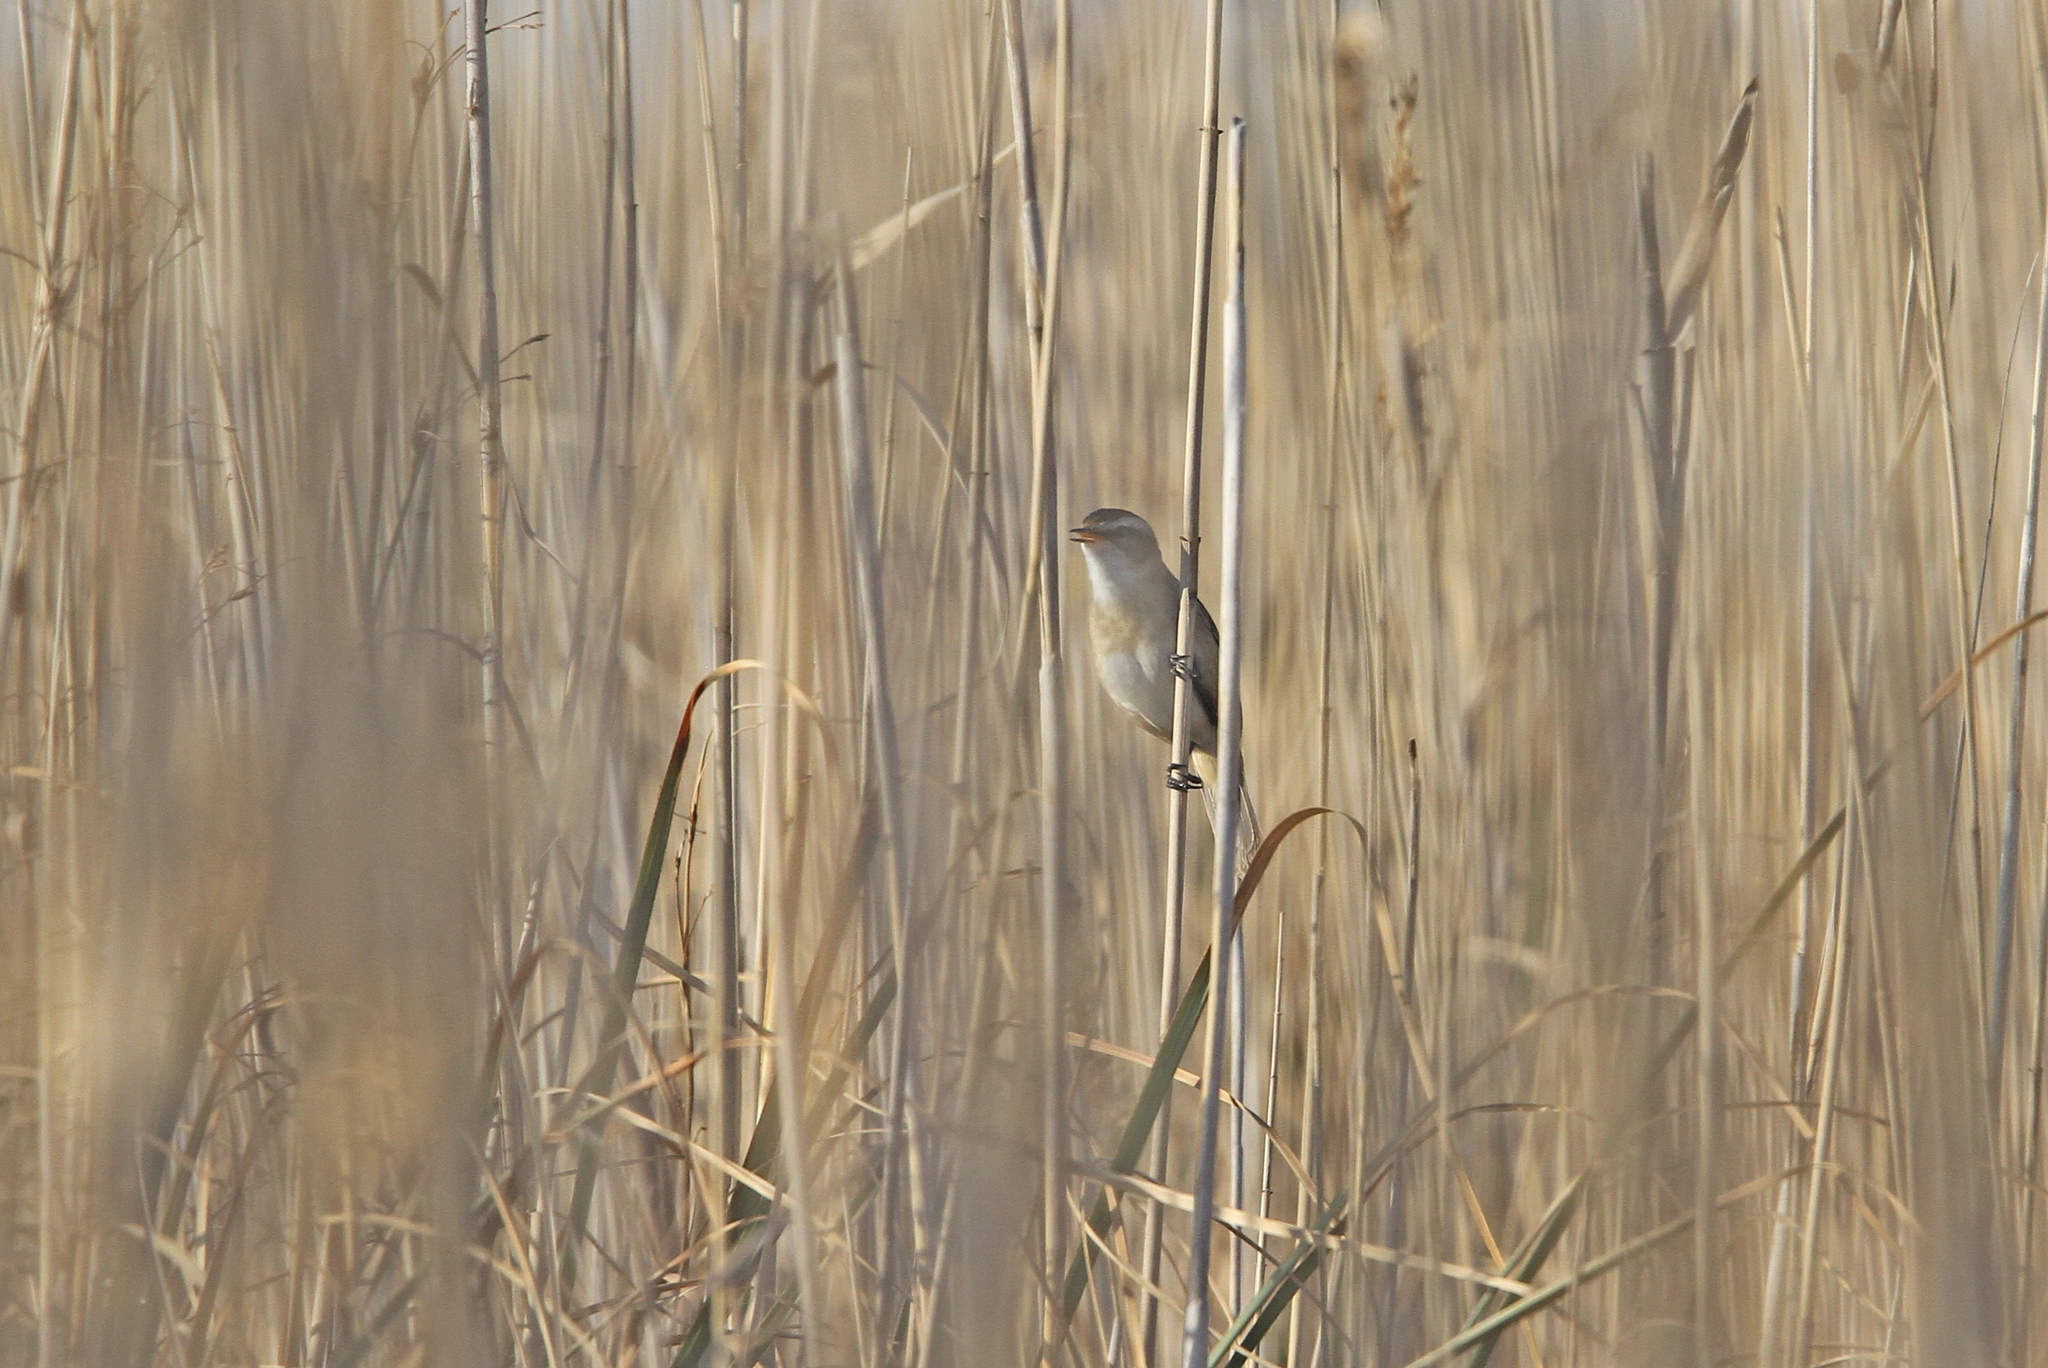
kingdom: Animalia
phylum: Chordata
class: Aves
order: Passeriformes
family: Acrocephalidae
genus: Acrocephalus
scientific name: Acrocephalus melanopogon
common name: Moustached warbler
